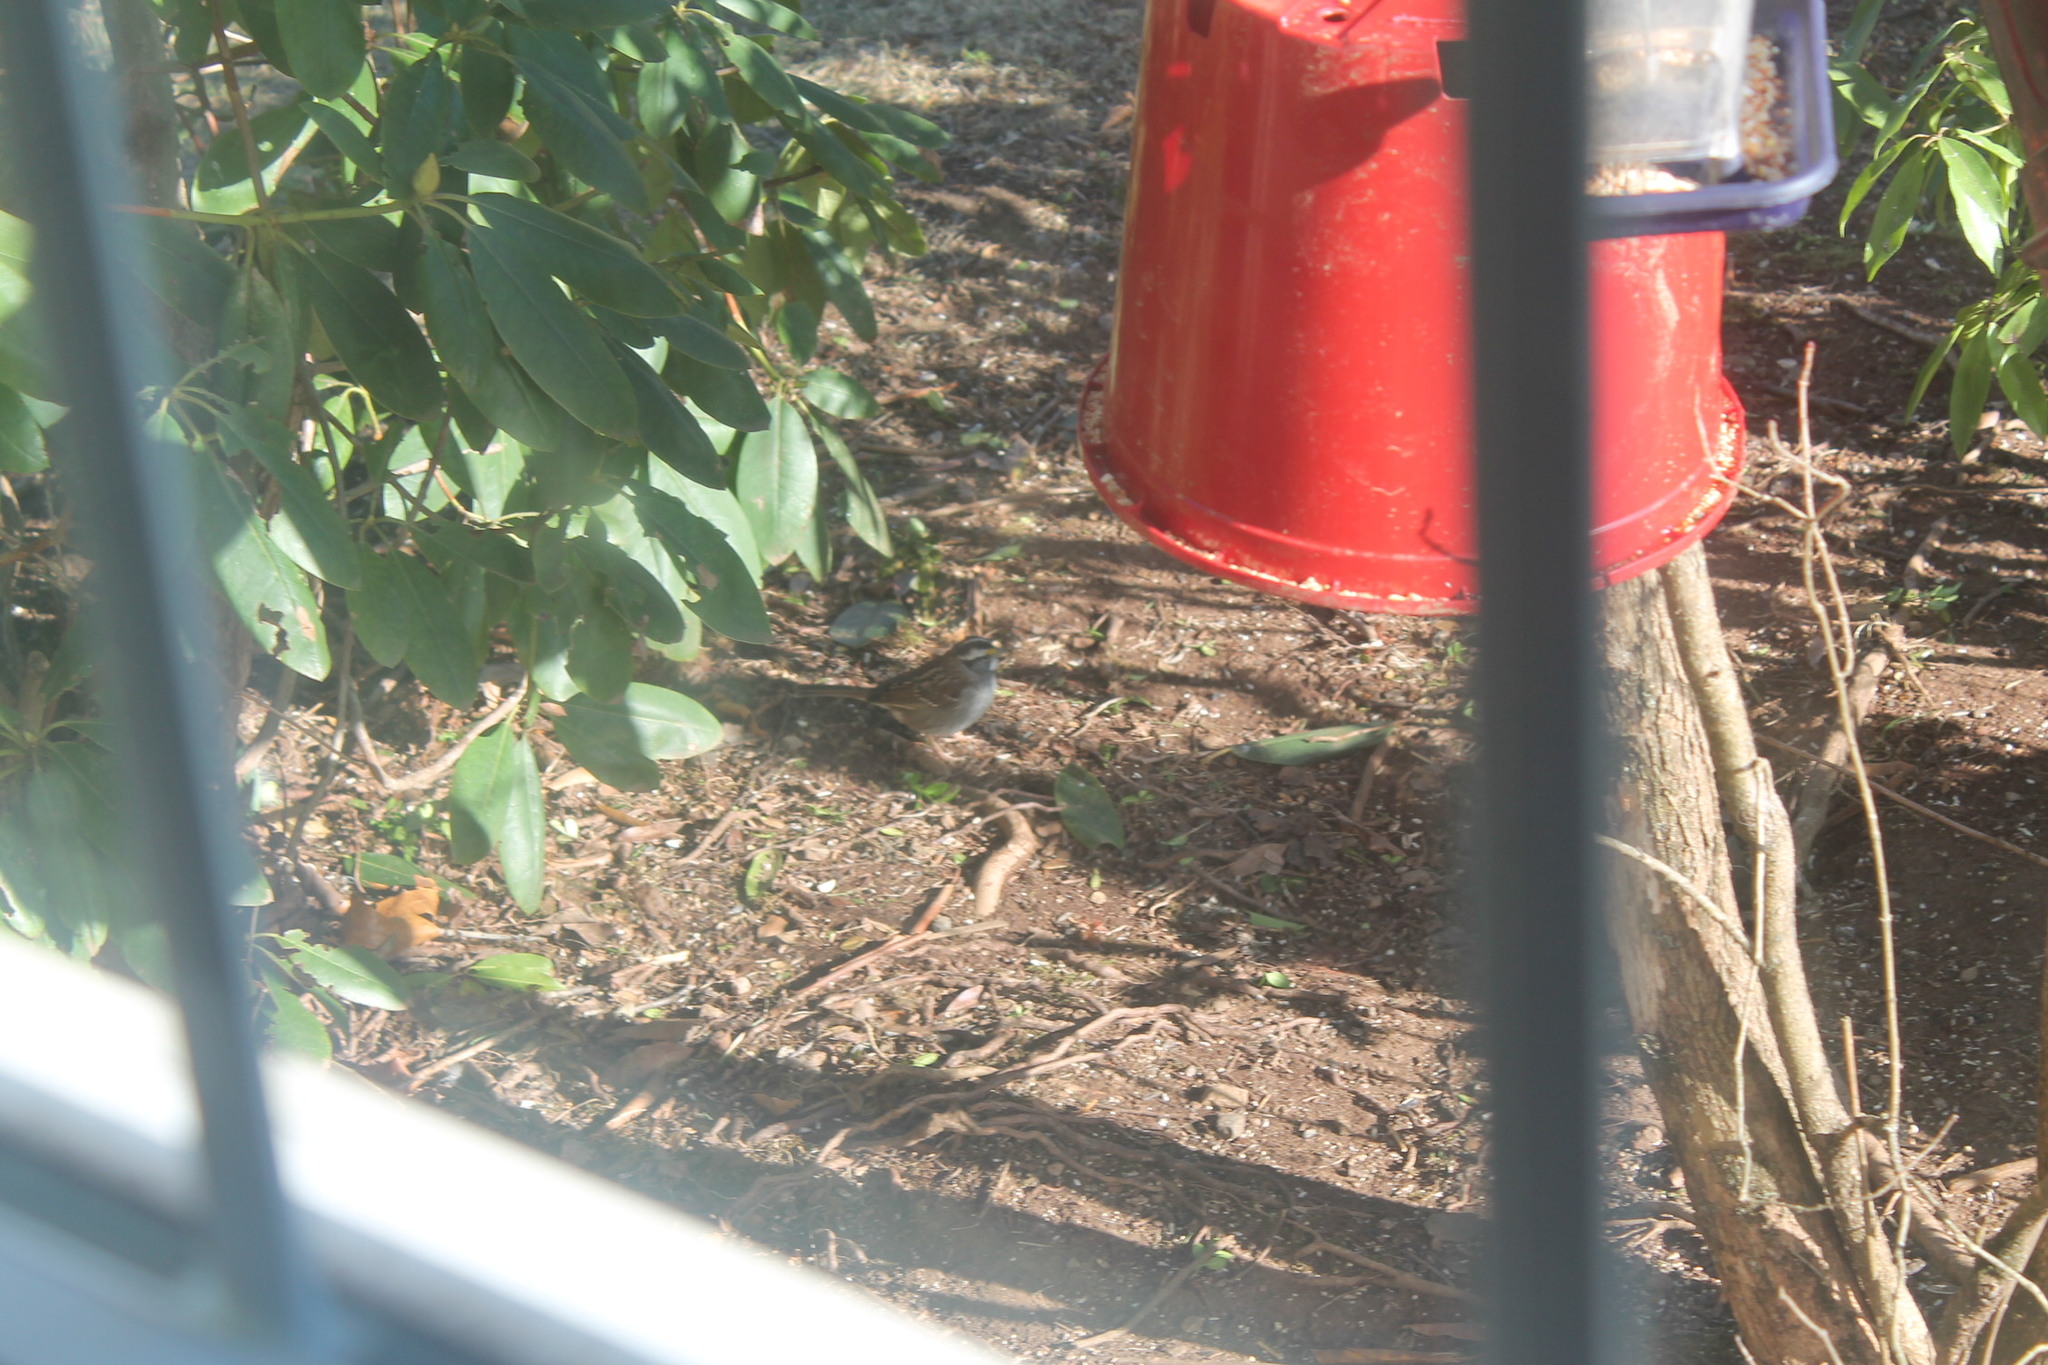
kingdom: Animalia
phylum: Chordata
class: Aves
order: Passeriformes
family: Passerellidae
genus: Zonotrichia
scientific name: Zonotrichia albicollis
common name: White-throated sparrow
